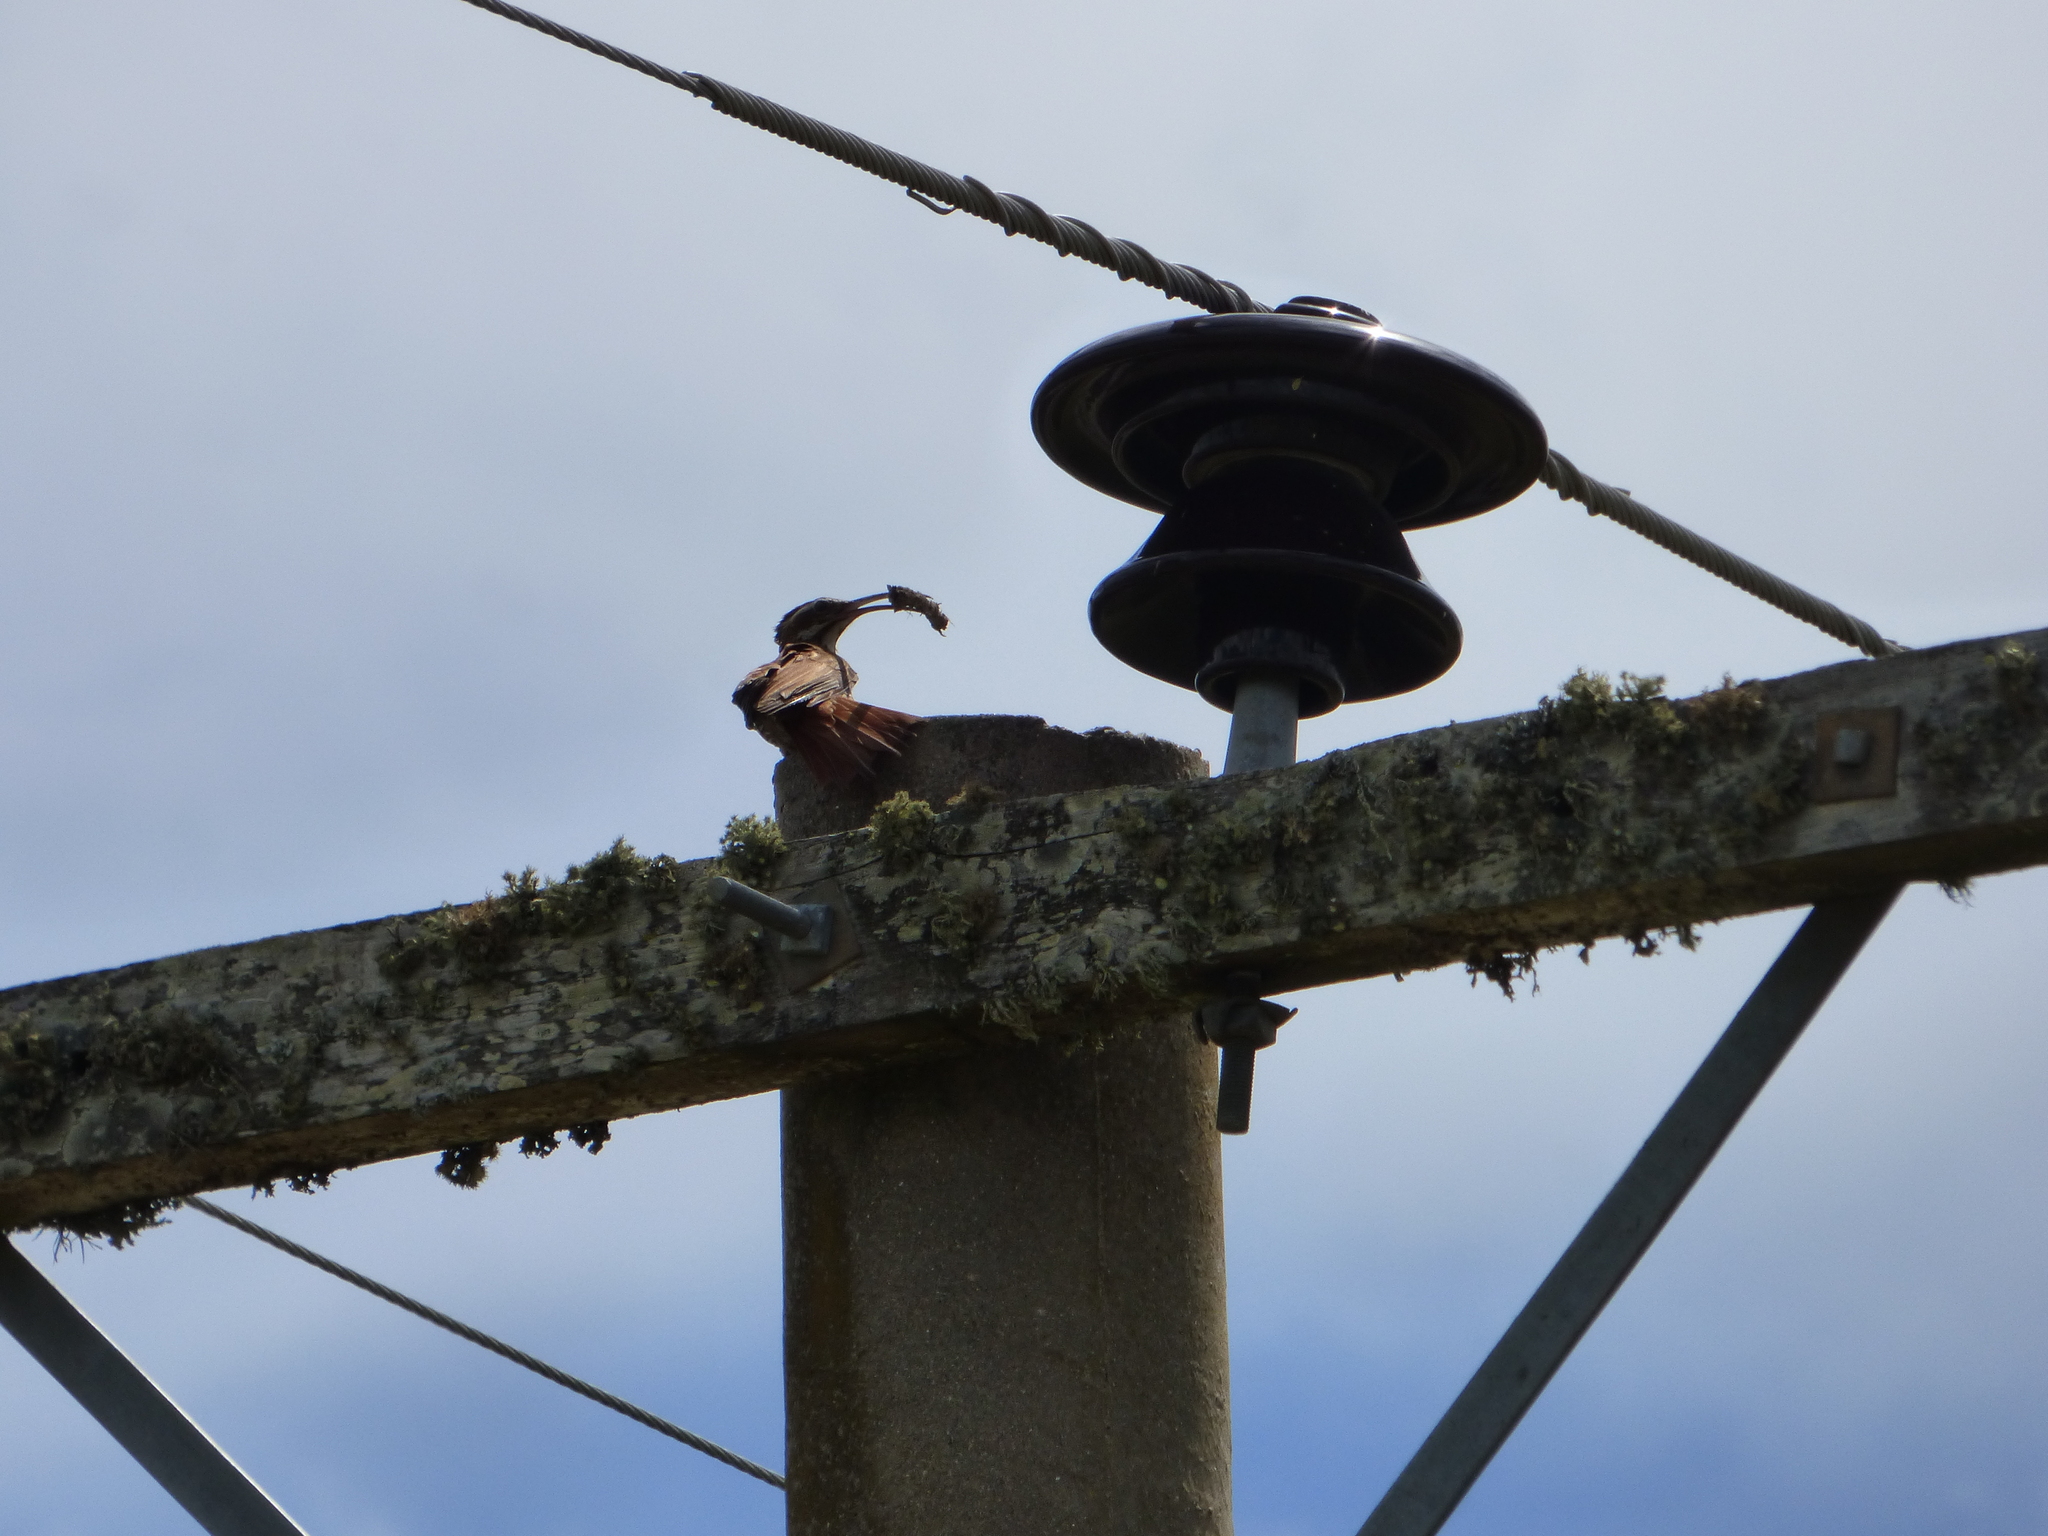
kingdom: Animalia
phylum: Chordata
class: Aves
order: Passeriformes
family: Furnariidae
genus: Drymornis
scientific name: Drymornis bridgesii
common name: Scimitar-billed woodcreeper
